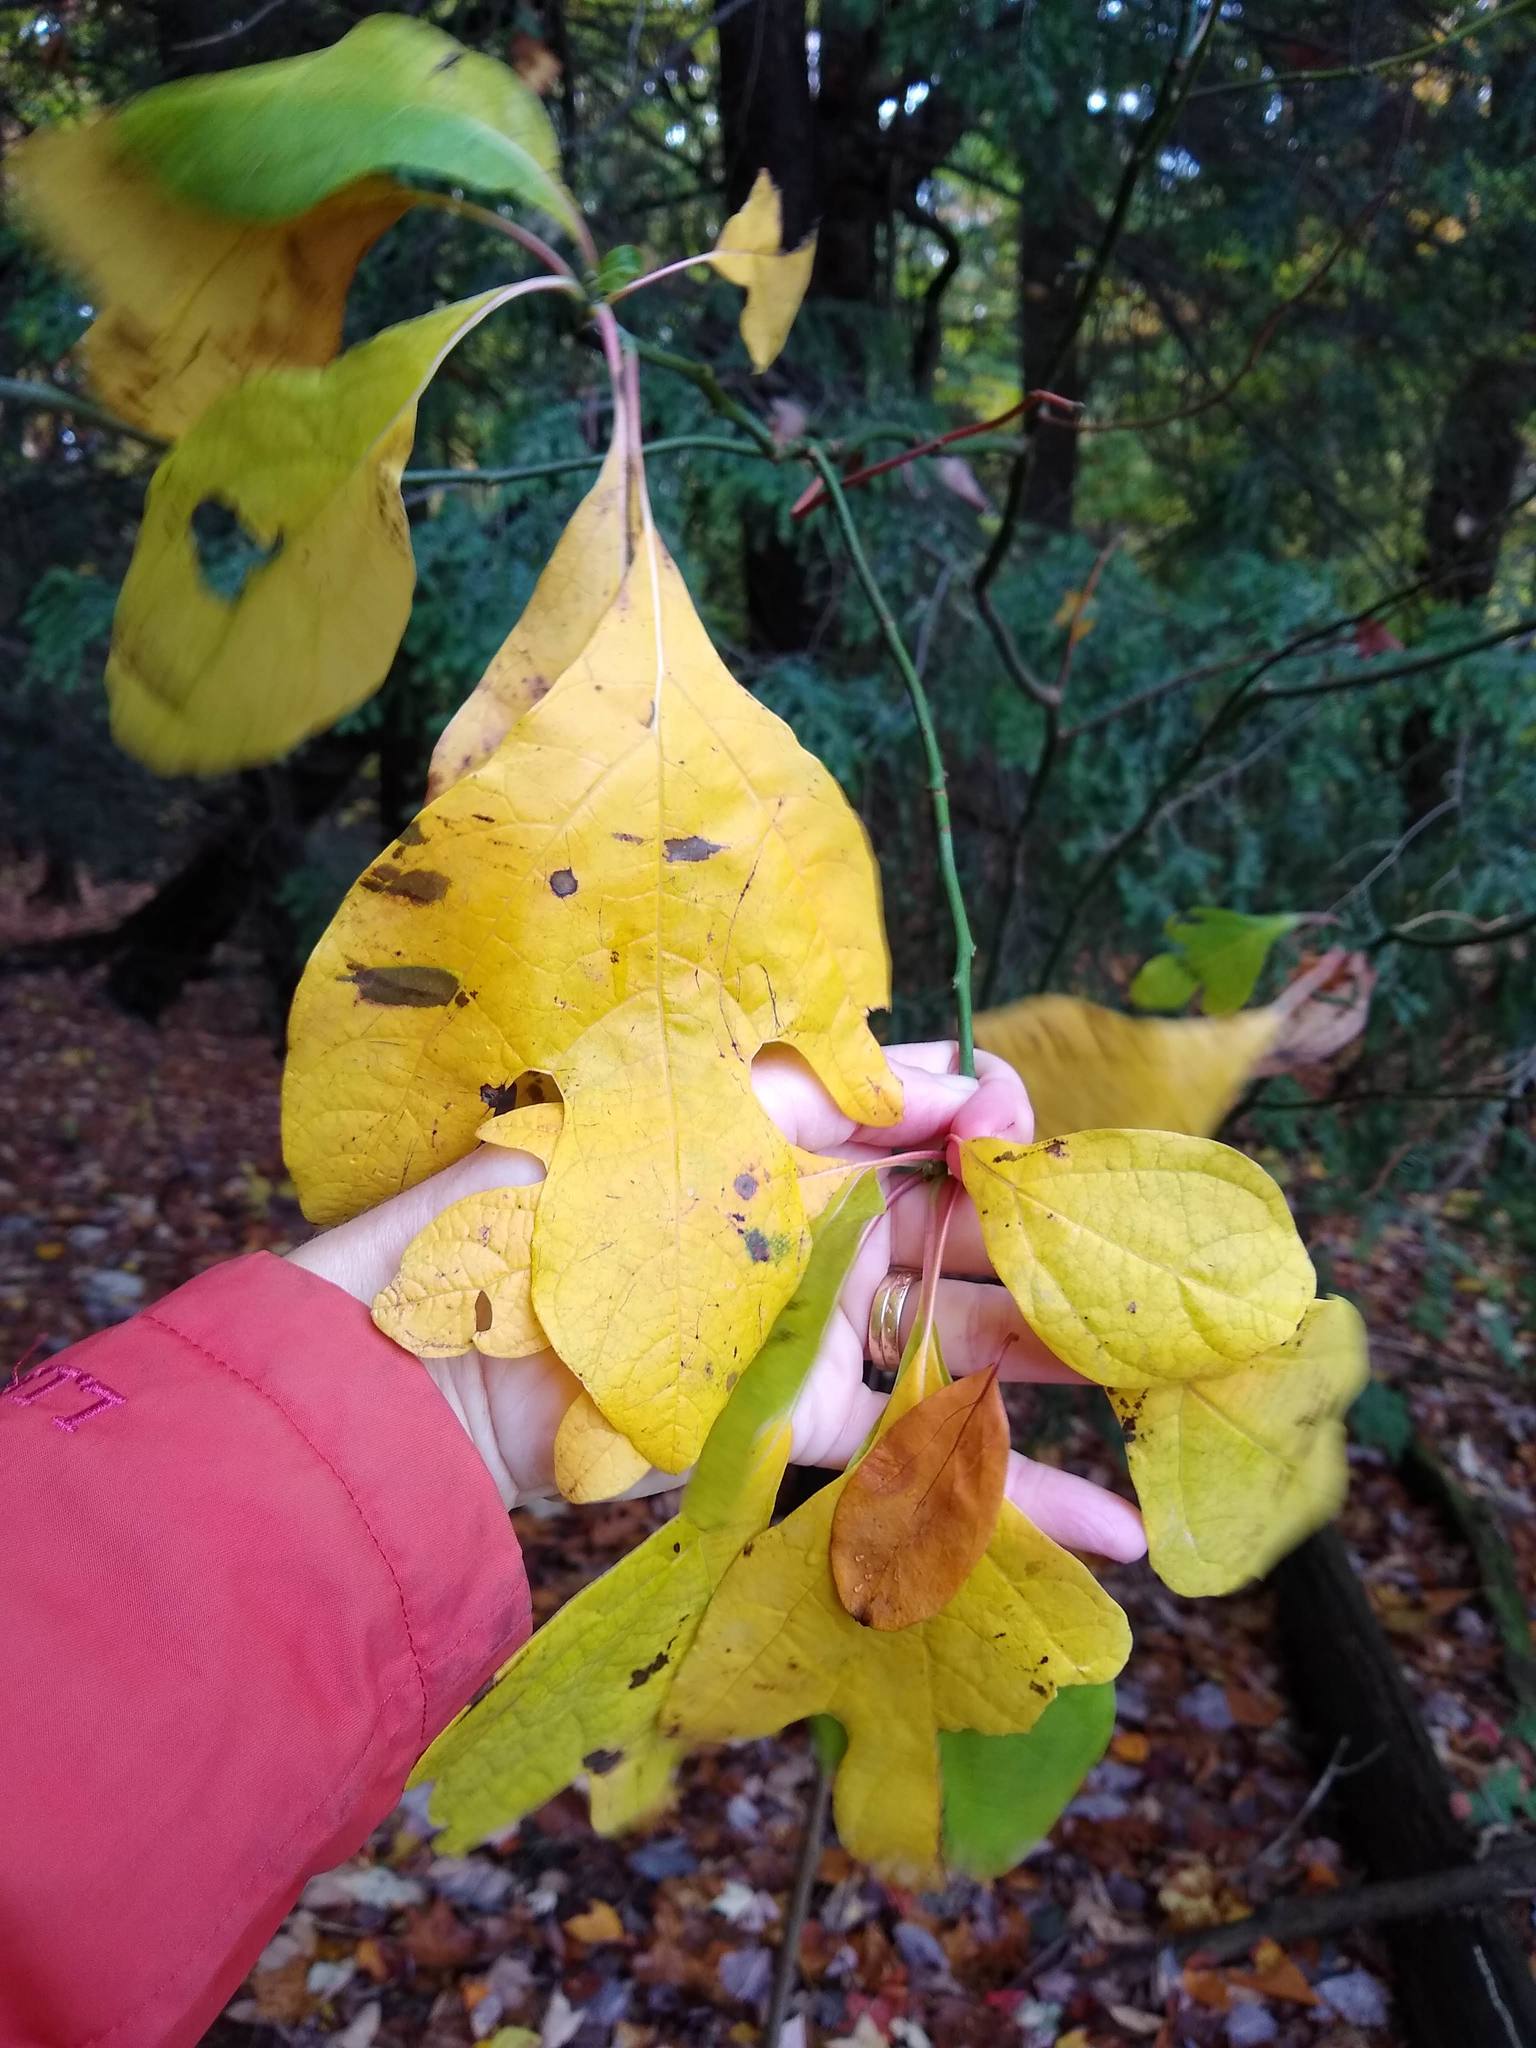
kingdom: Plantae
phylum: Tracheophyta
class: Magnoliopsida
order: Laurales
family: Lauraceae
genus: Sassafras
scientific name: Sassafras albidum
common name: Sassafras
